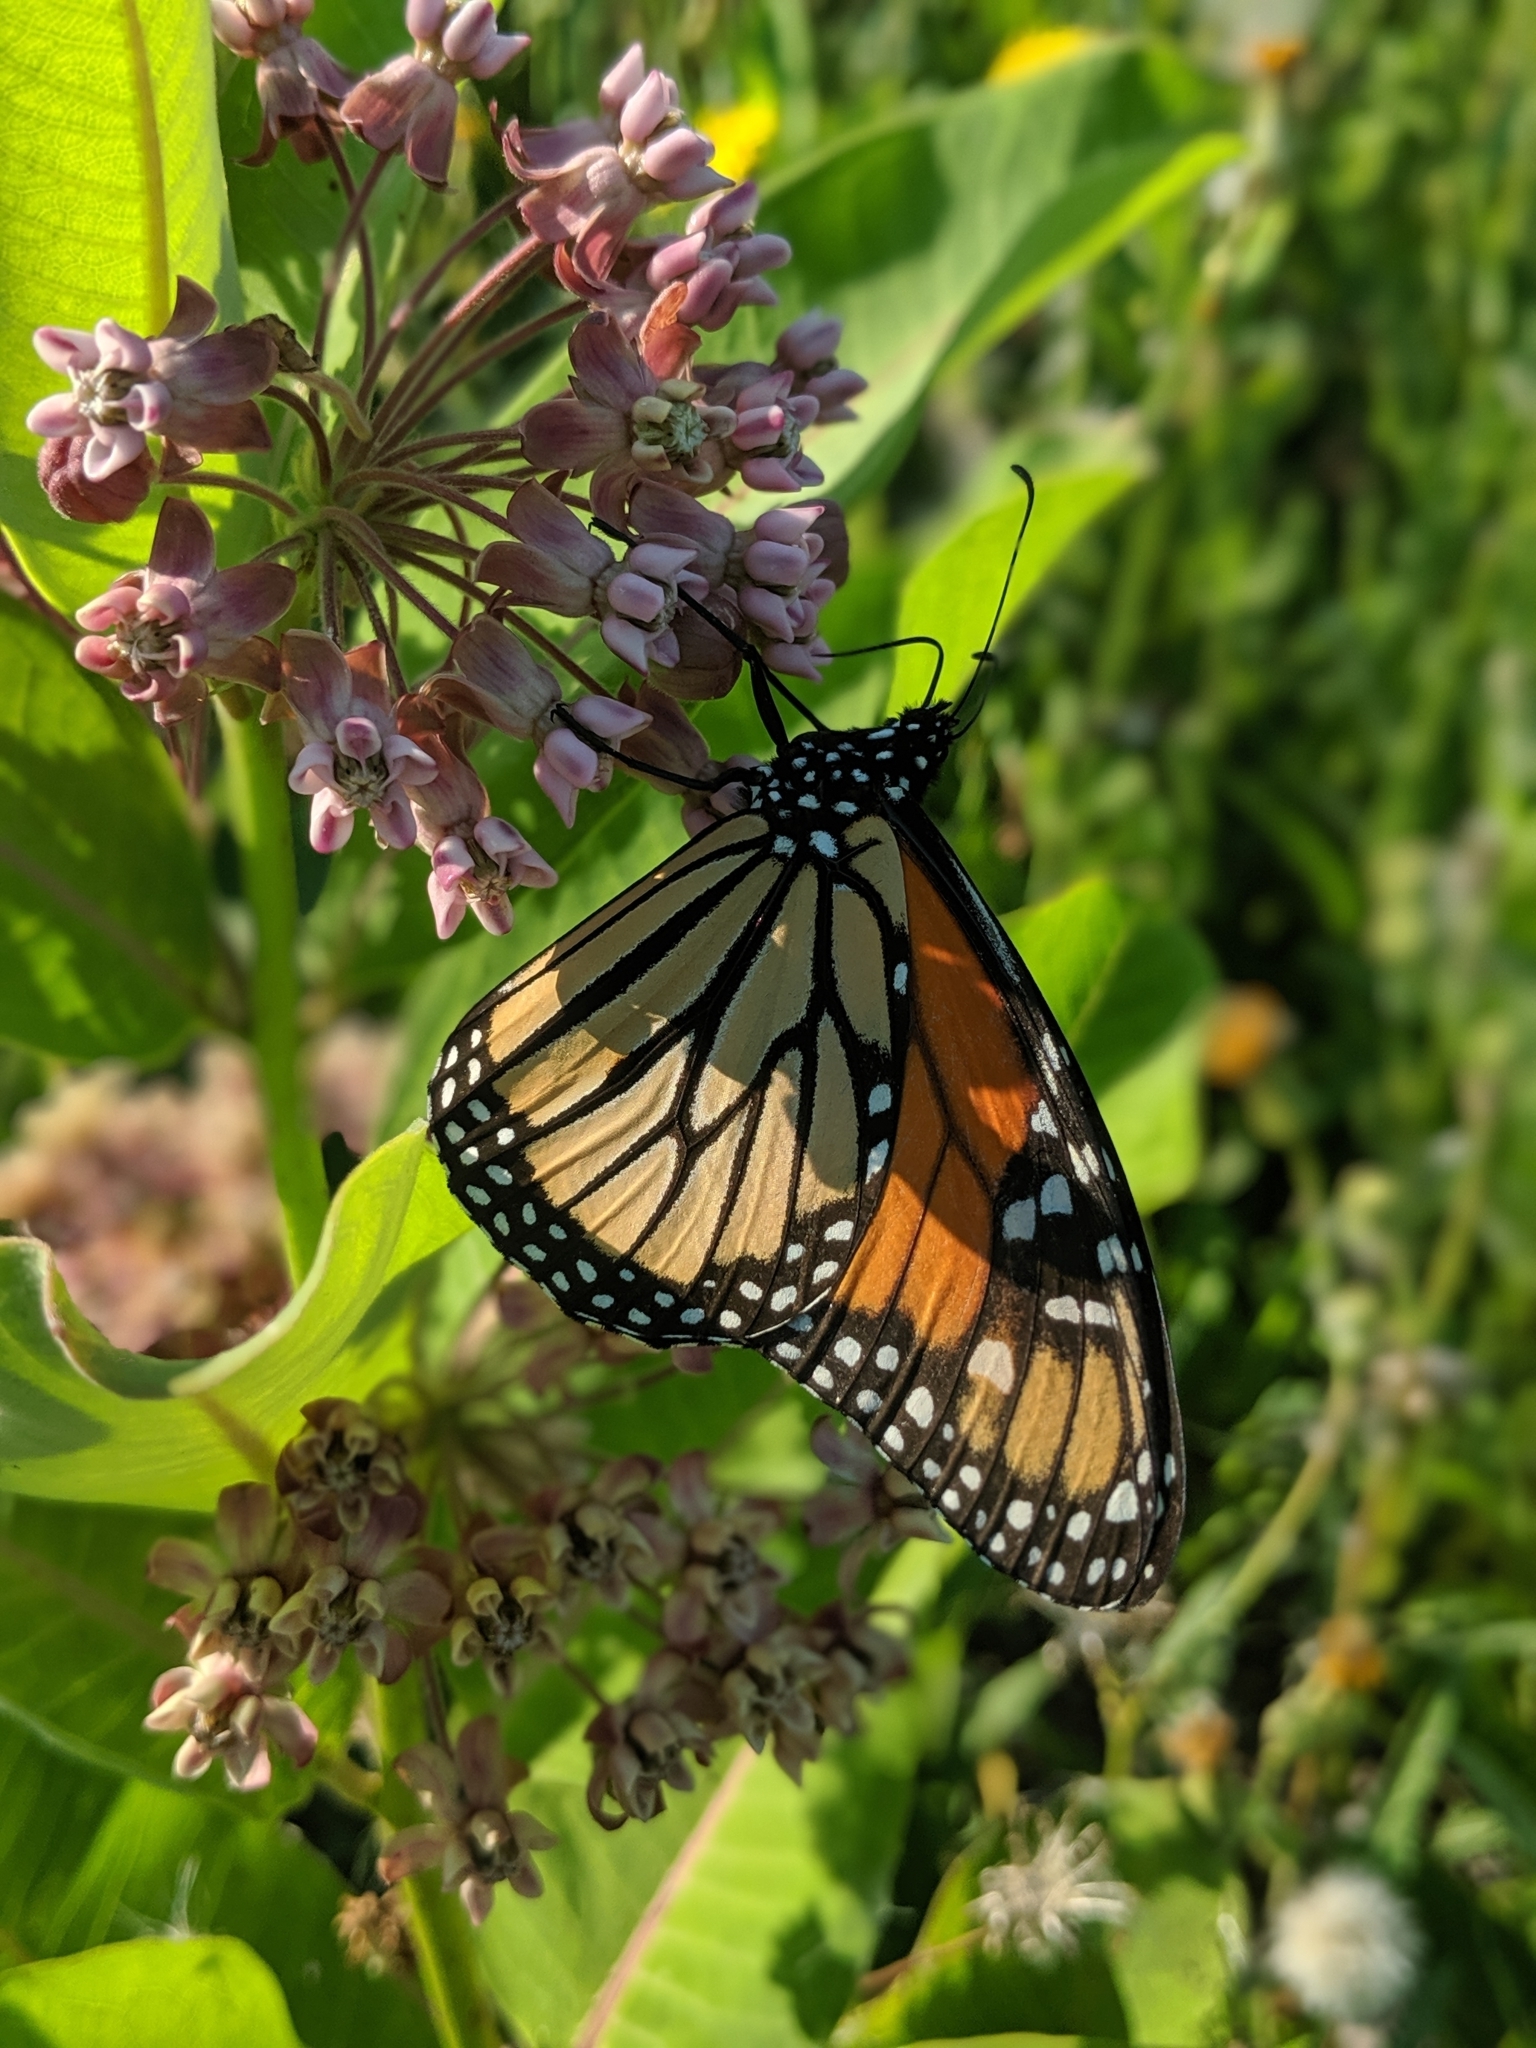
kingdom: Animalia
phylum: Arthropoda
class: Insecta
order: Lepidoptera
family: Nymphalidae
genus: Danaus
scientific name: Danaus plexippus
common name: Monarch
